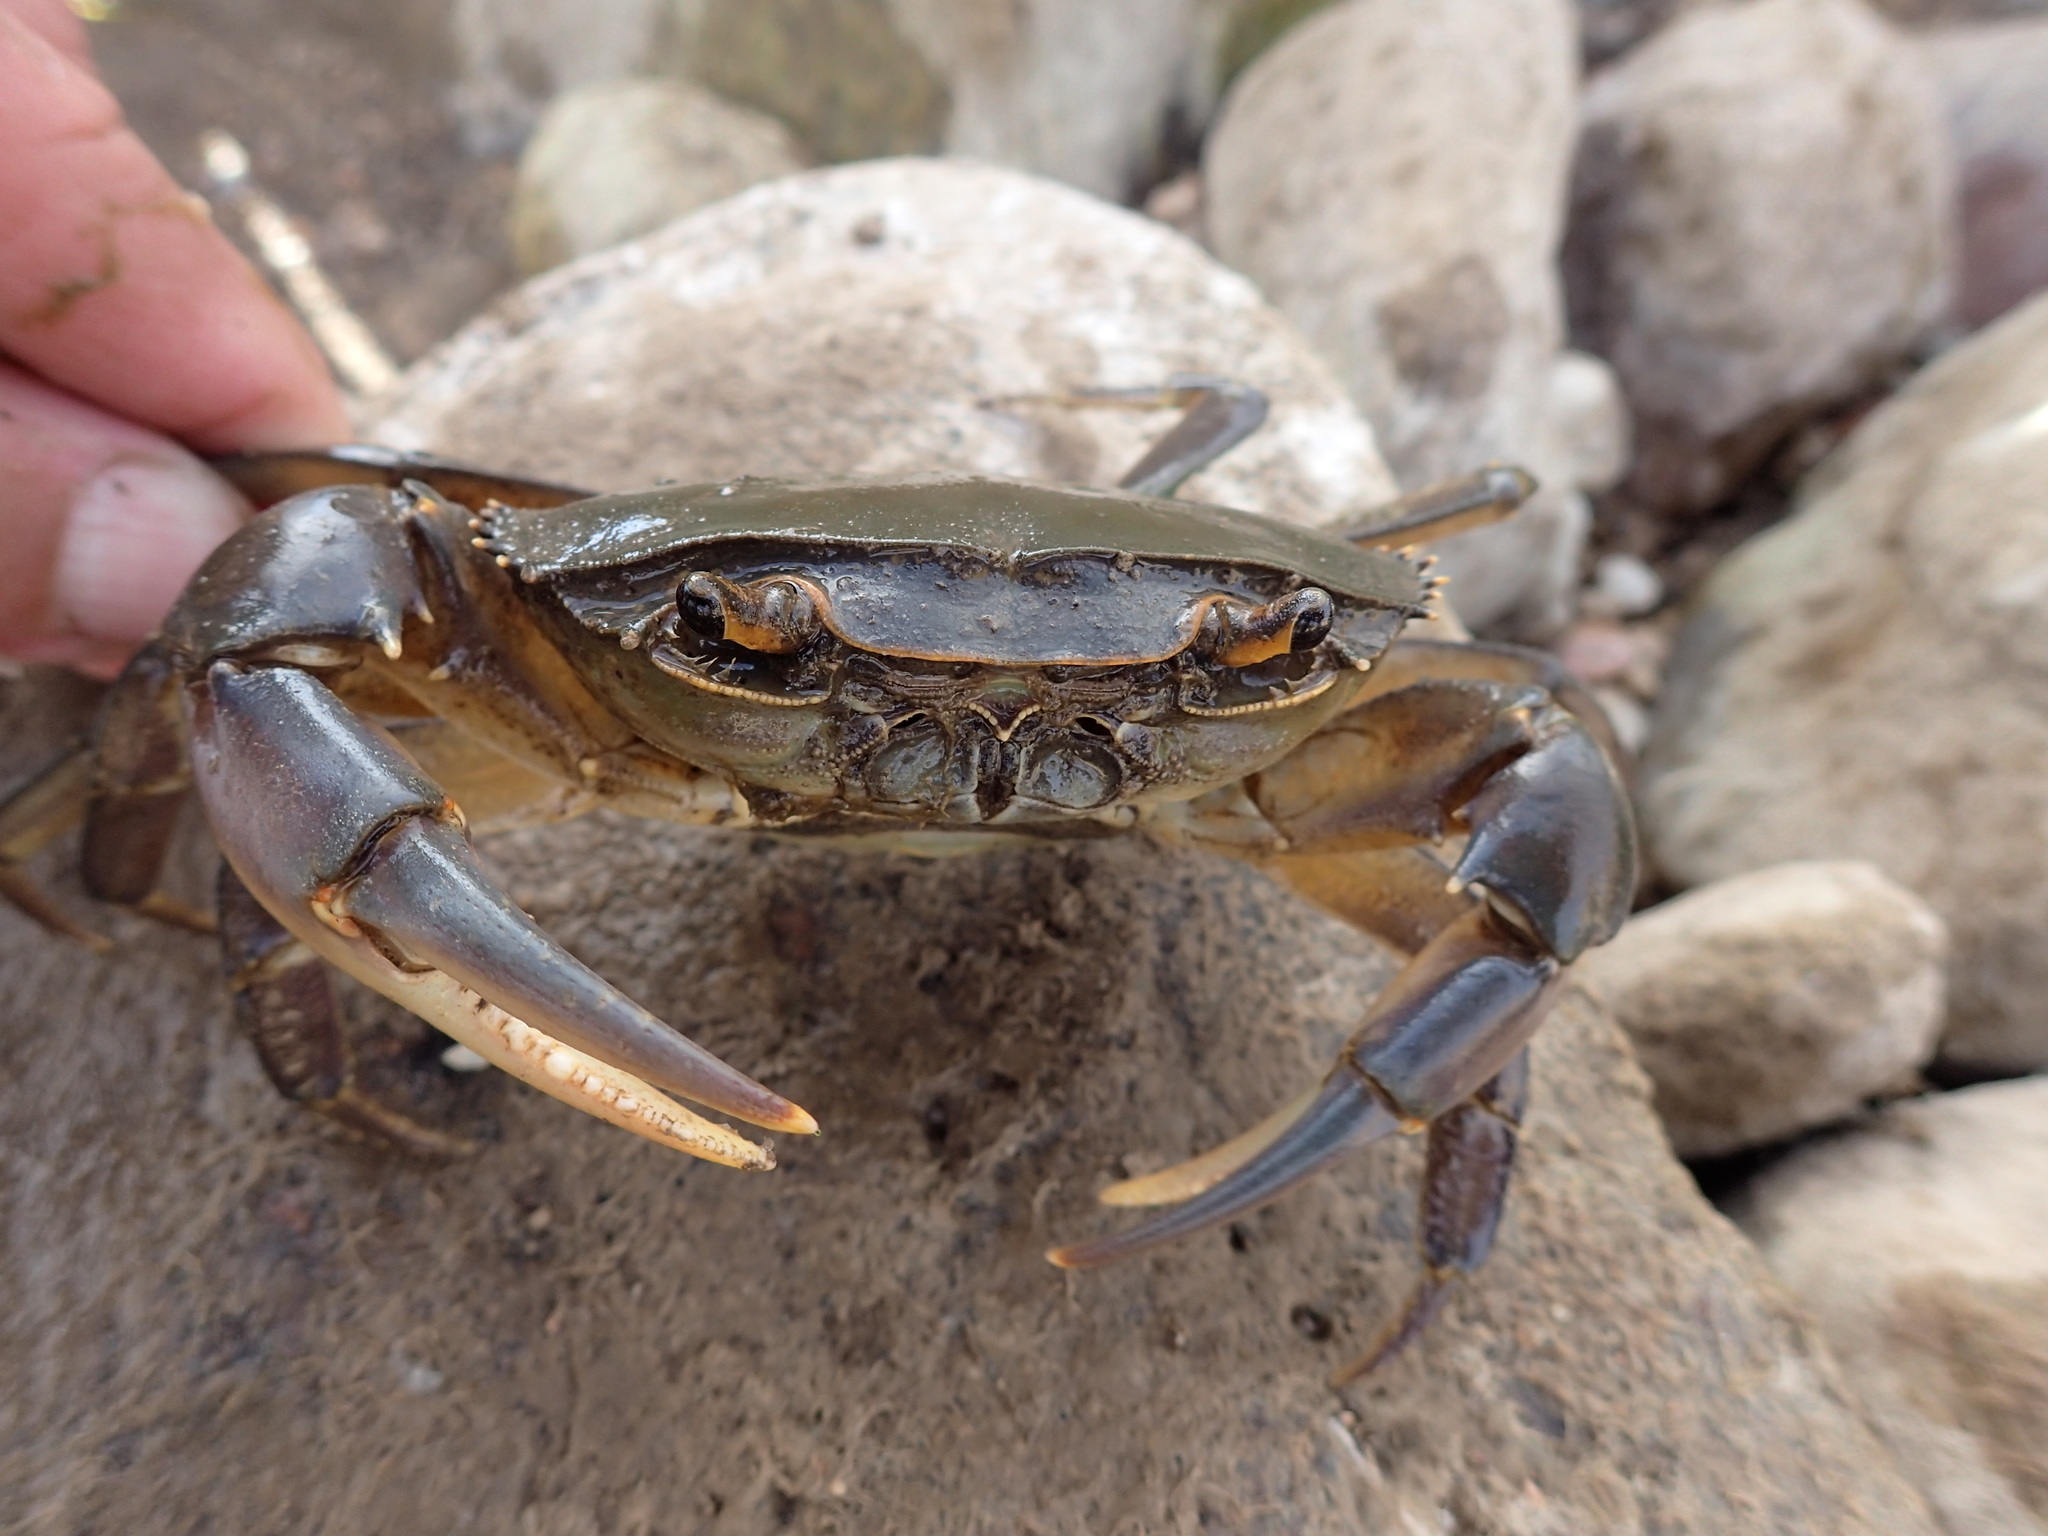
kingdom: Animalia
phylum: Arthropoda
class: Malacostraca
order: Decapoda
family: Potamonautidae
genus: Potamonautes
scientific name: Potamonautes warreni
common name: Warren's river crab
